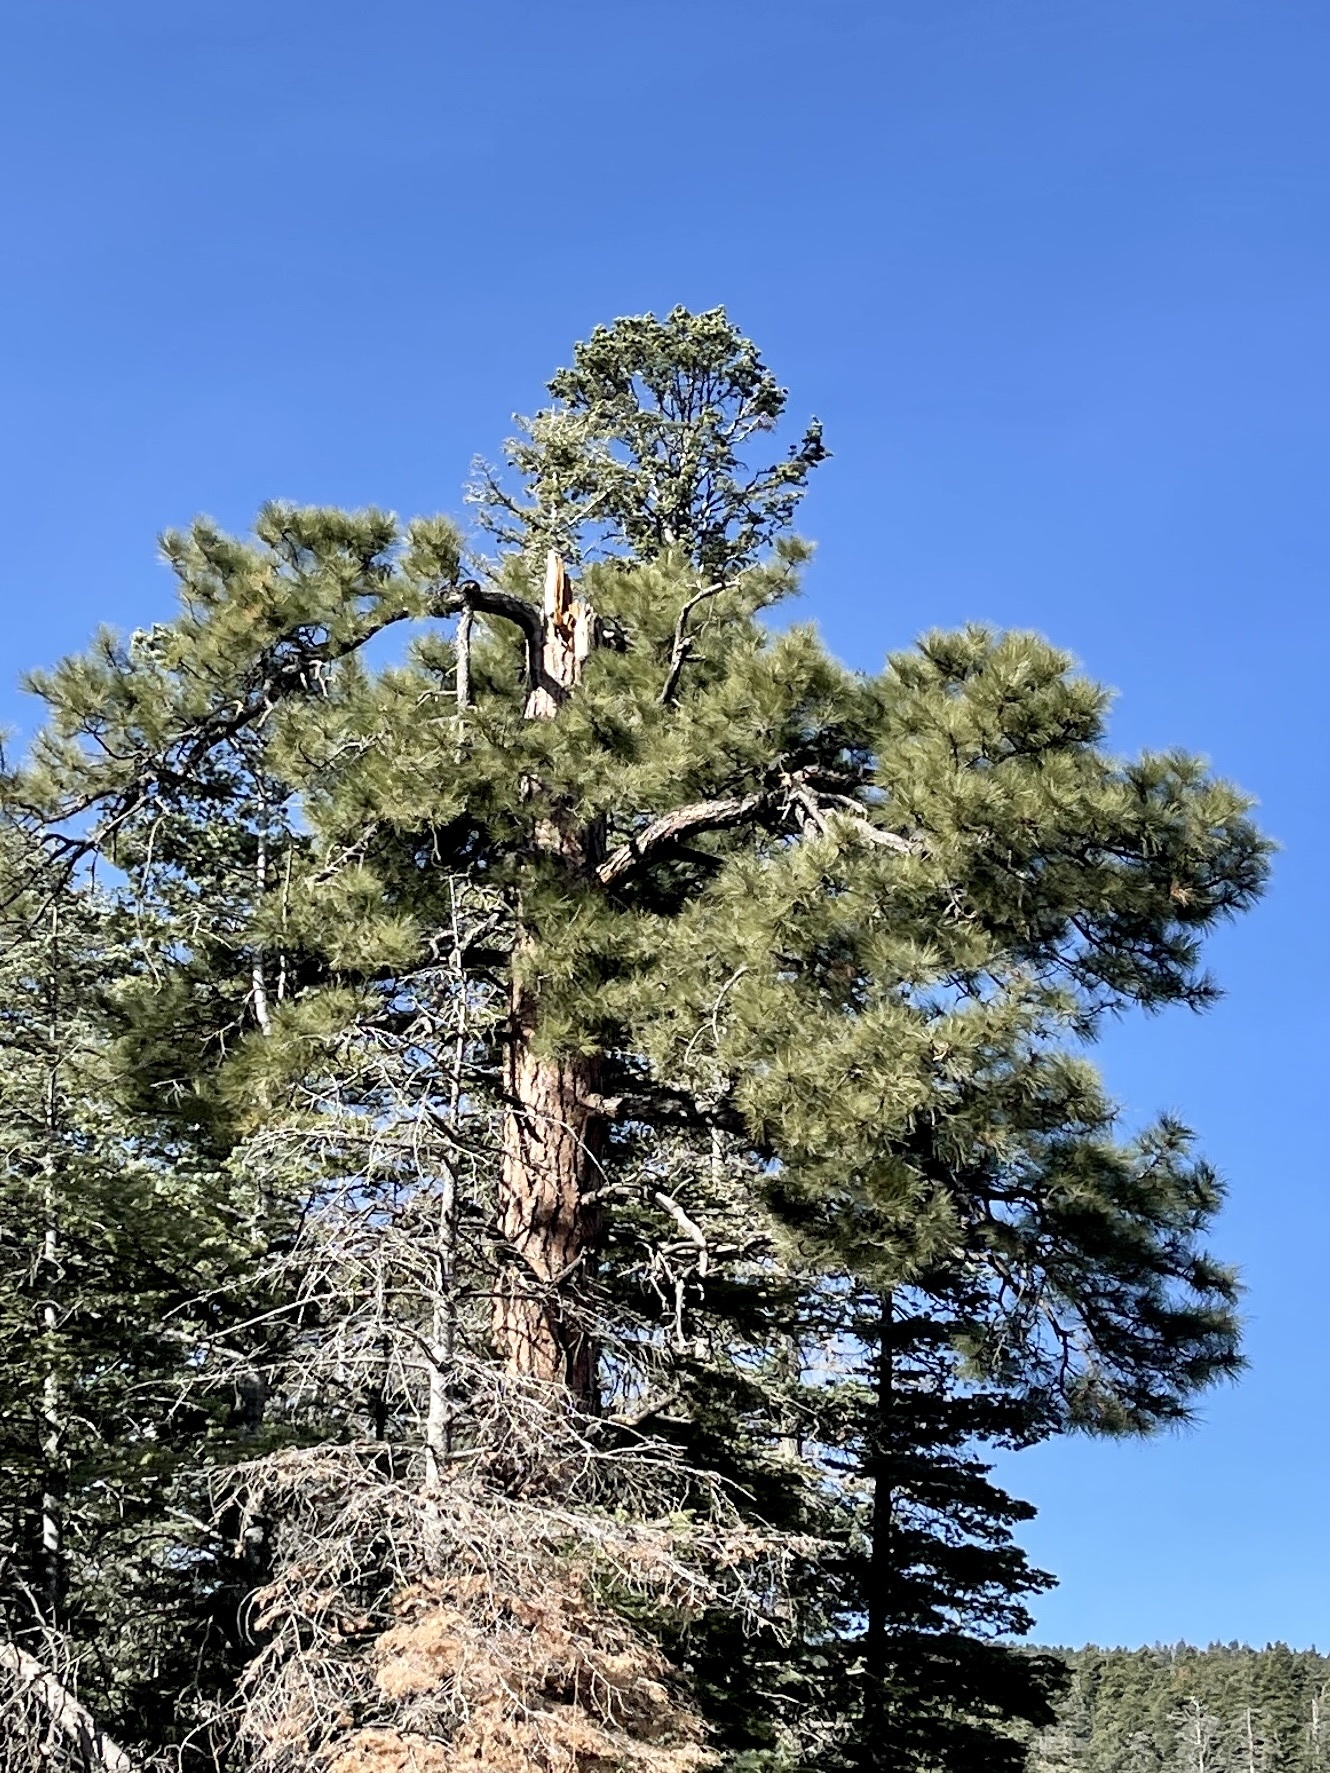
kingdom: Plantae
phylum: Tracheophyta
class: Pinopsida
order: Pinales
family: Pinaceae
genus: Pinus
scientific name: Pinus ponderosa
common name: Western yellow-pine
